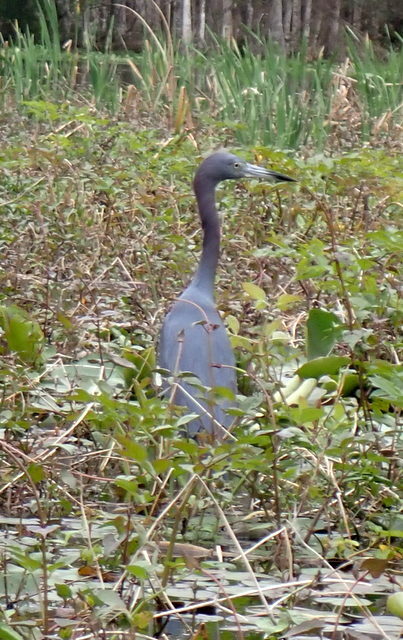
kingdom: Animalia
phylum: Chordata
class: Aves
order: Pelecaniformes
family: Ardeidae
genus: Egretta
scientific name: Egretta caerulea
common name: Little blue heron
